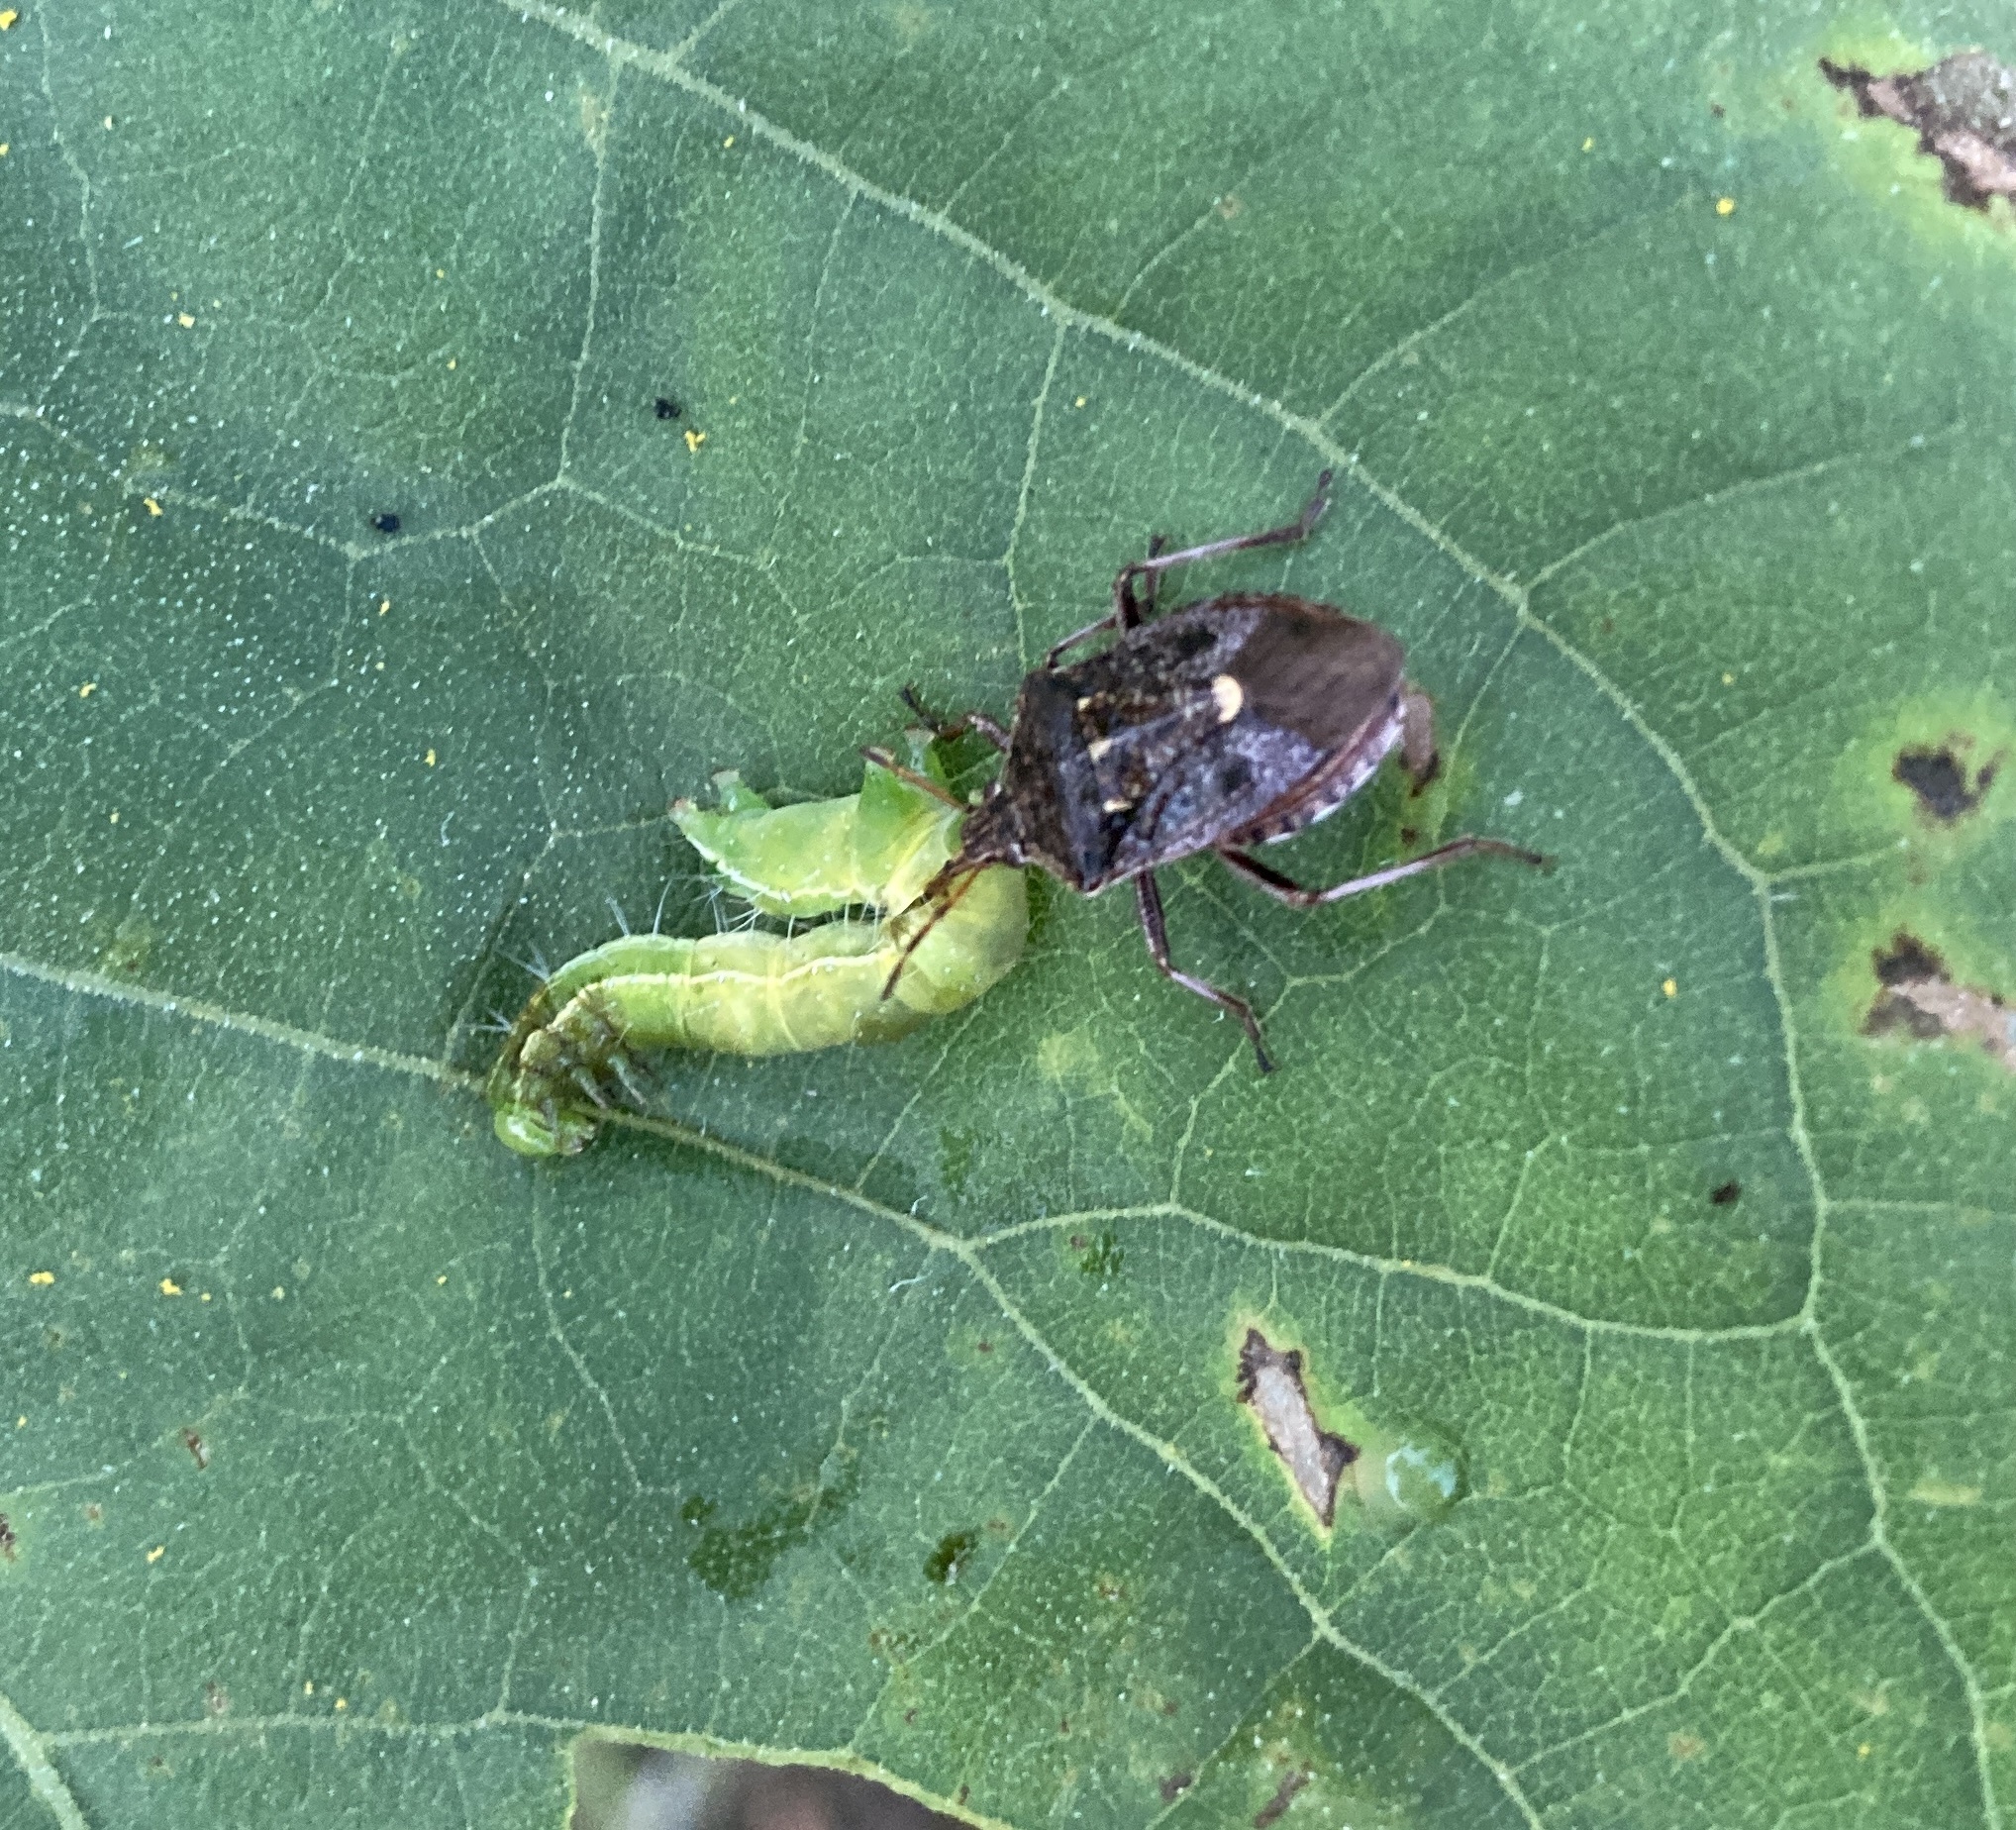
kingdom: Animalia
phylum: Arthropoda
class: Insecta
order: Hemiptera
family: Pentatomidae
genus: Cermatulus
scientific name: Cermatulus nasalis
